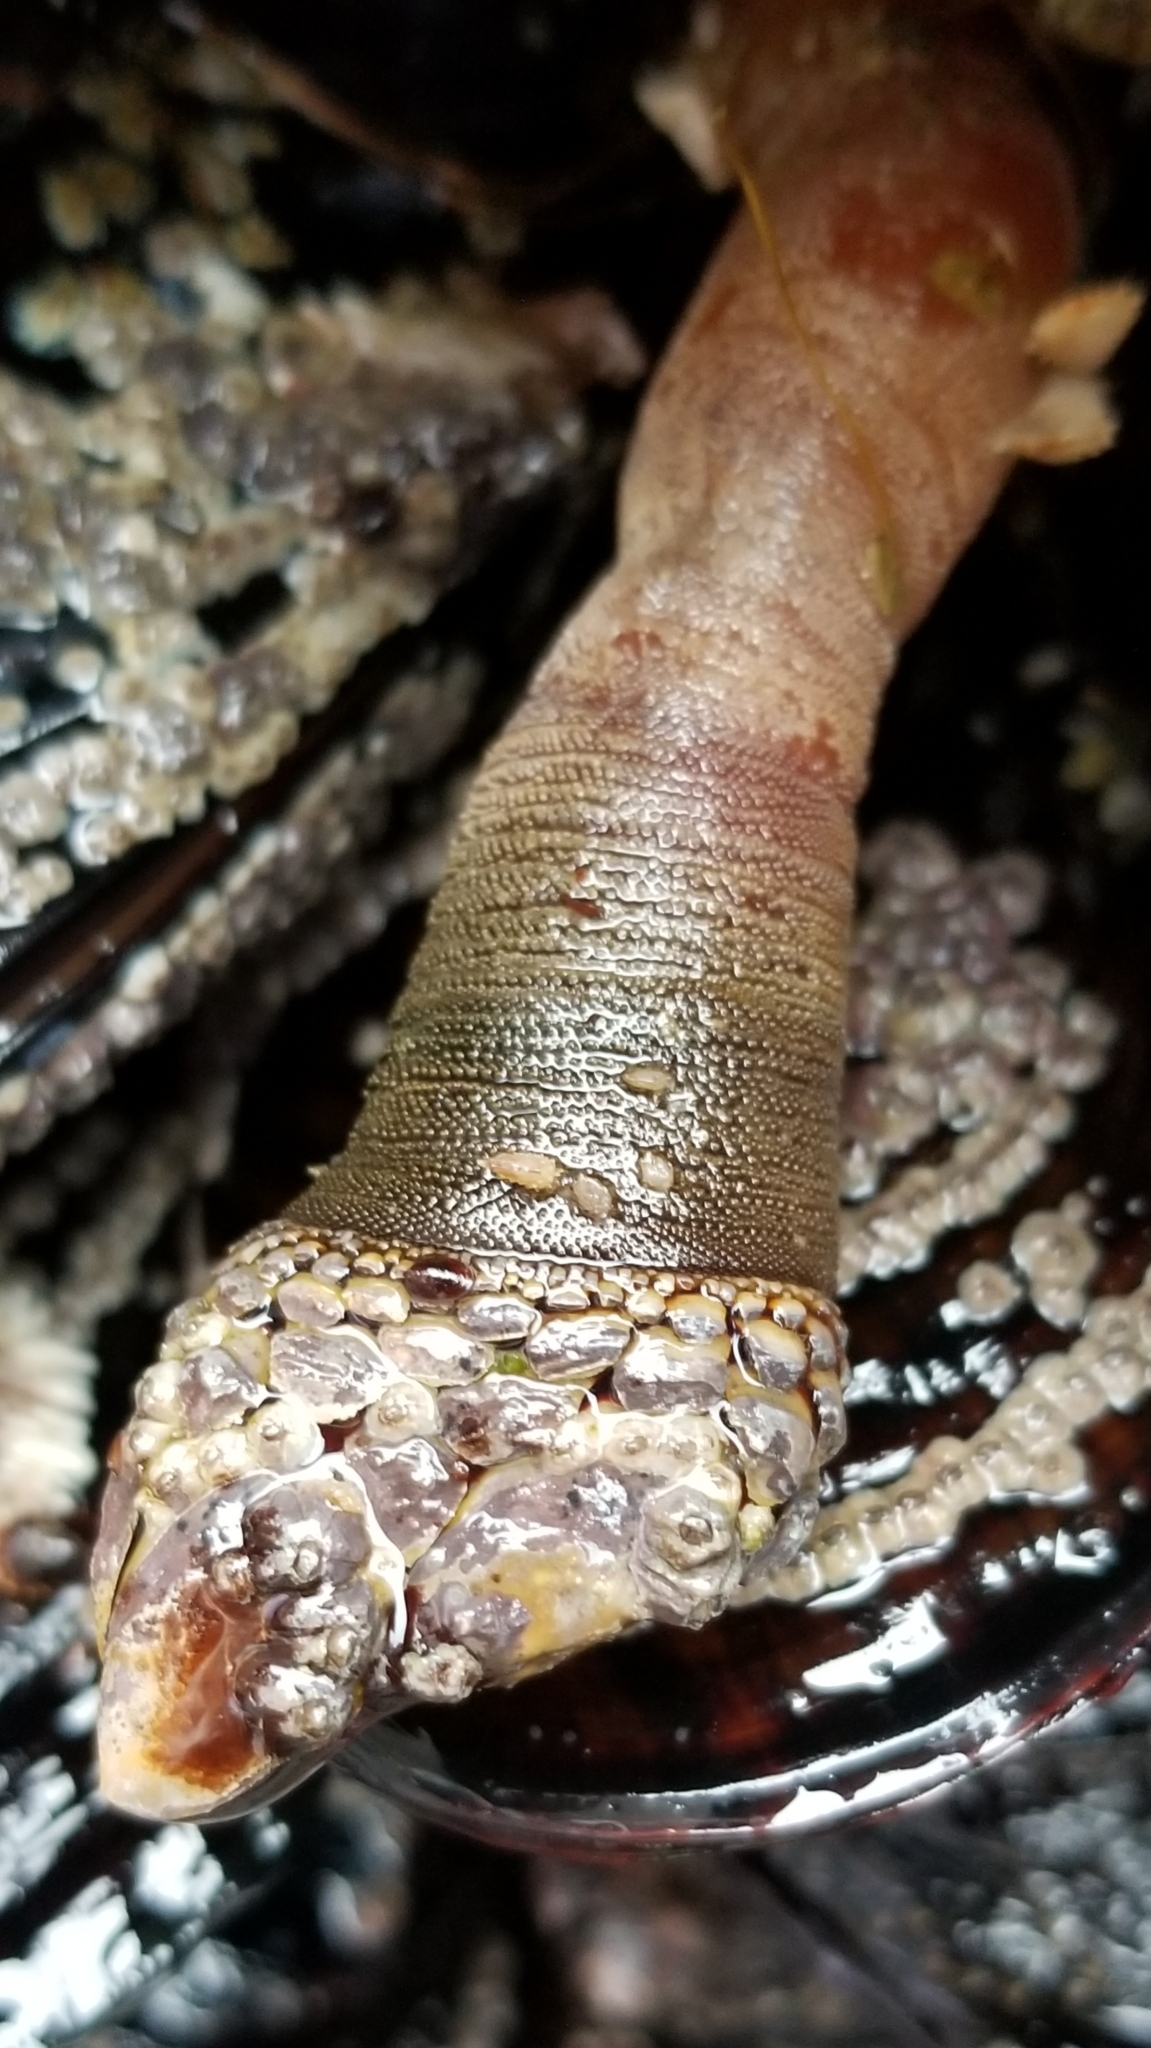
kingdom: Animalia
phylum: Arthropoda
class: Maxillopoda
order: Pedunculata
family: Pollicipedidae
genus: Pollicipes
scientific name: Pollicipes polymerus
